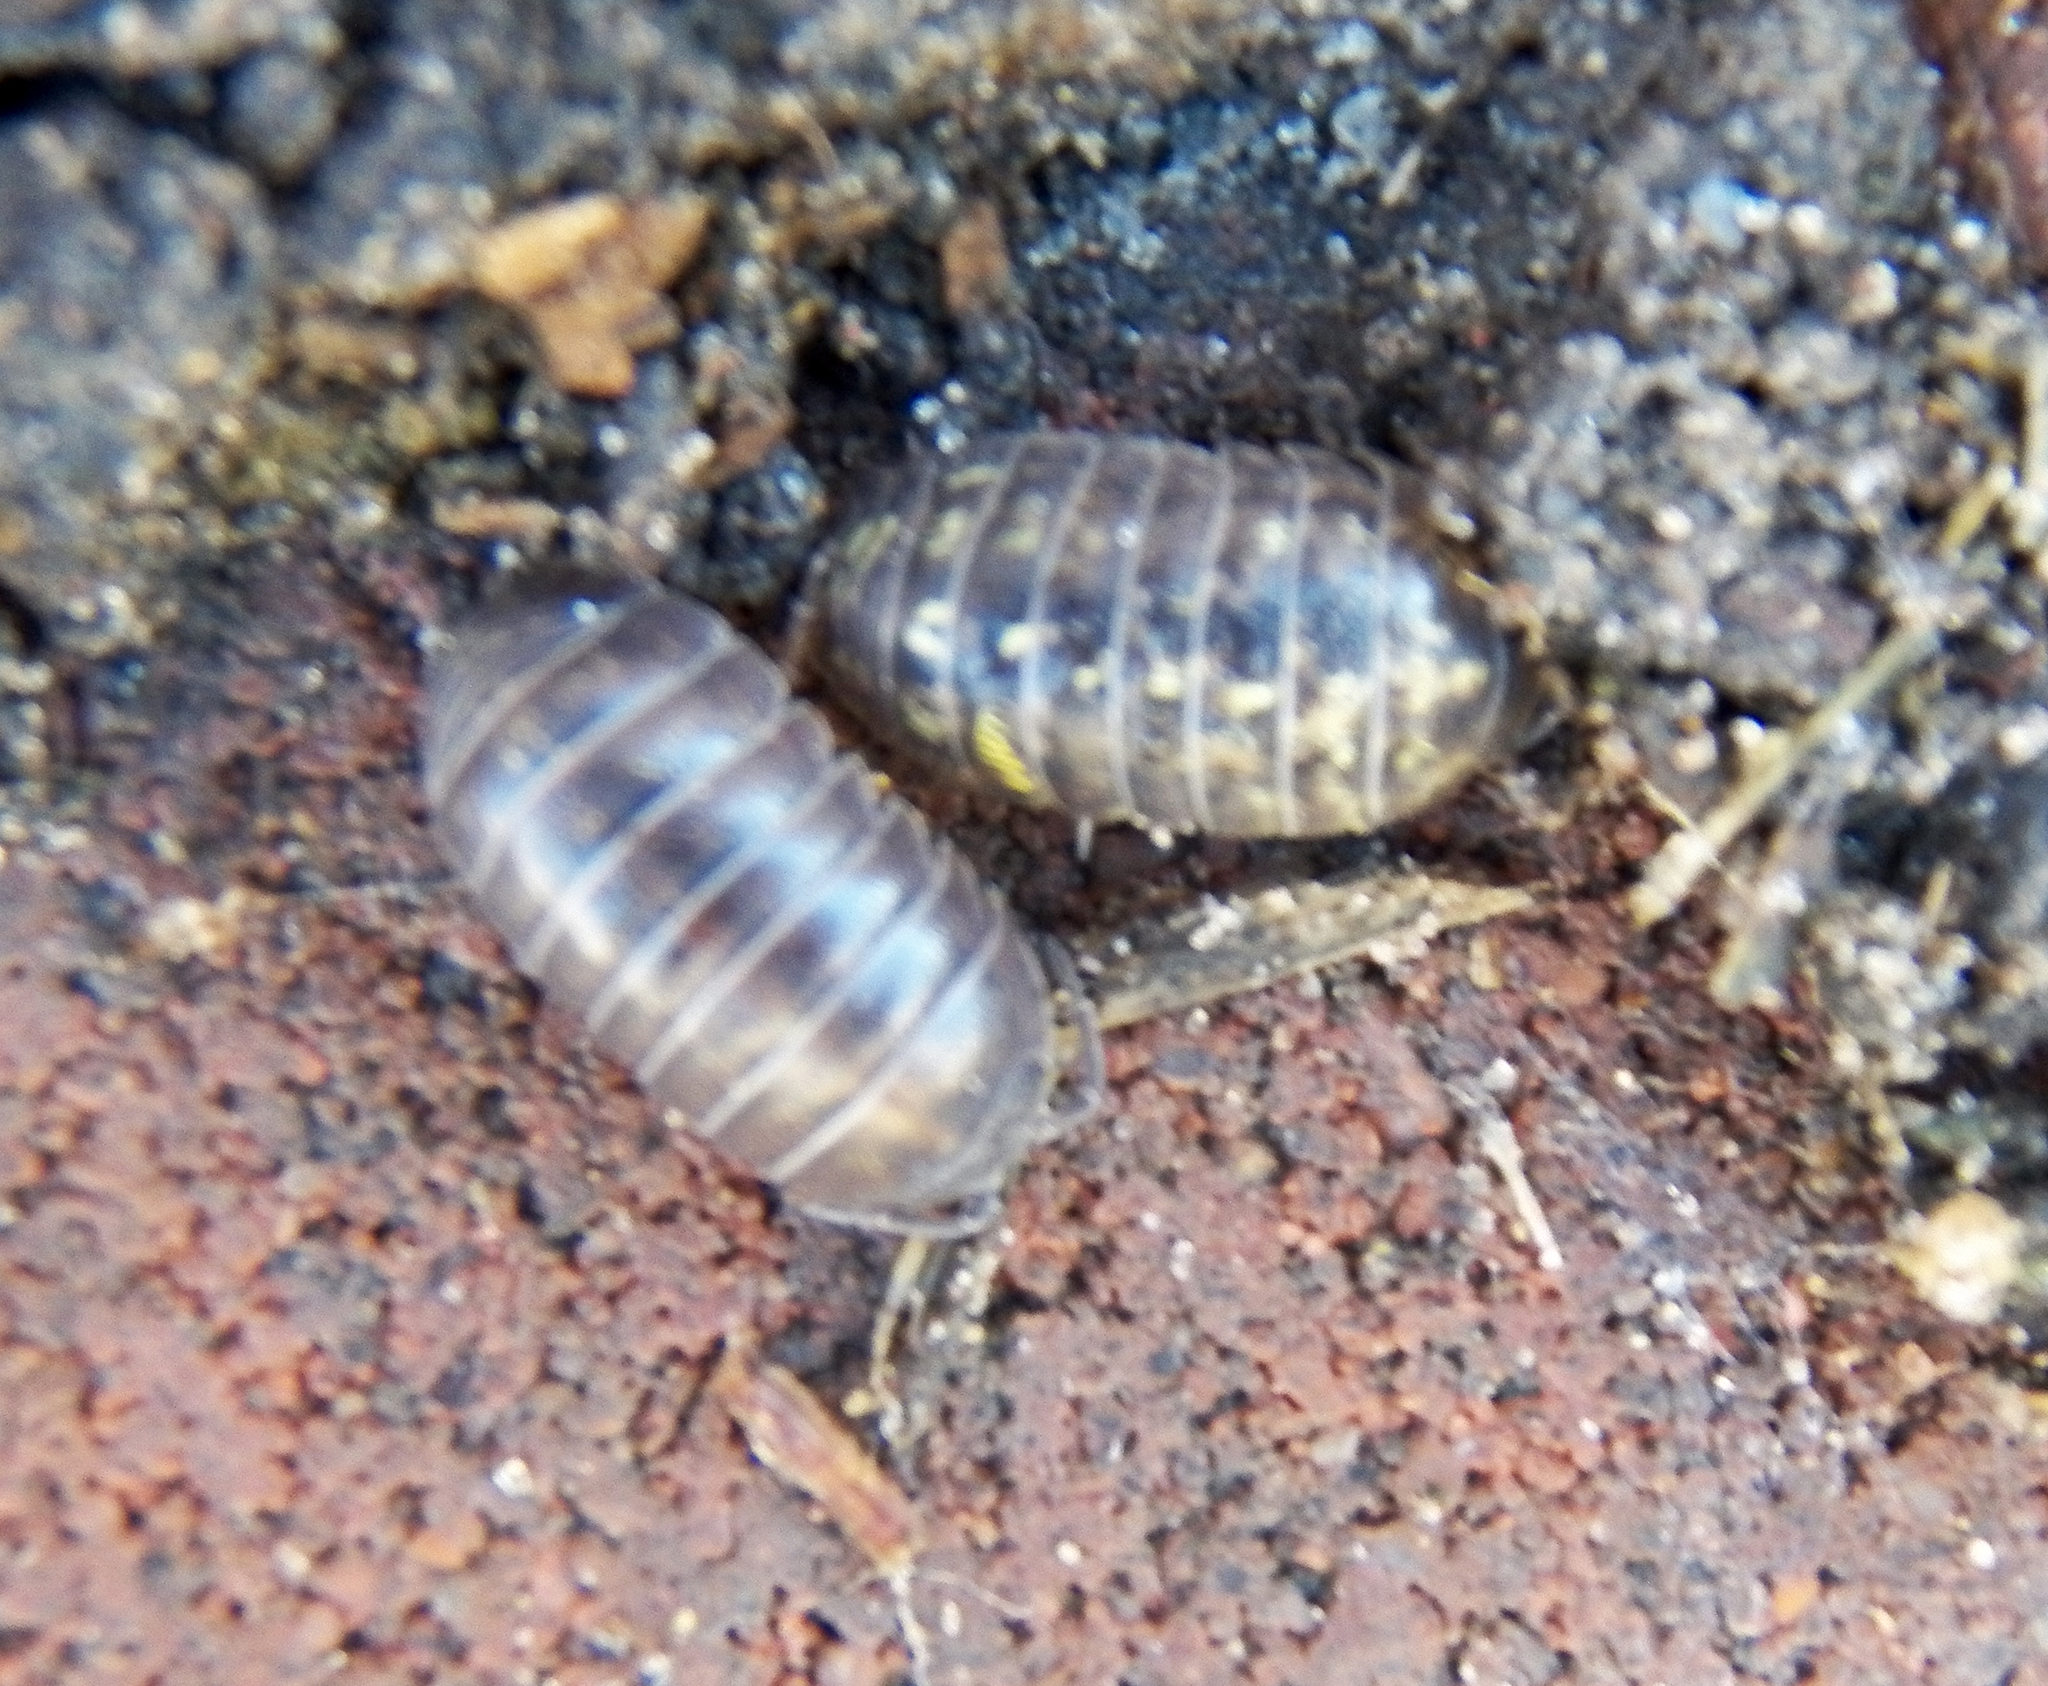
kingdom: Animalia
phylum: Arthropoda
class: Malacostraca
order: Isopoda
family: Armadillidiidae
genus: Armadillidium
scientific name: Armadillidium vulgare
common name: Common pill woodlouse
